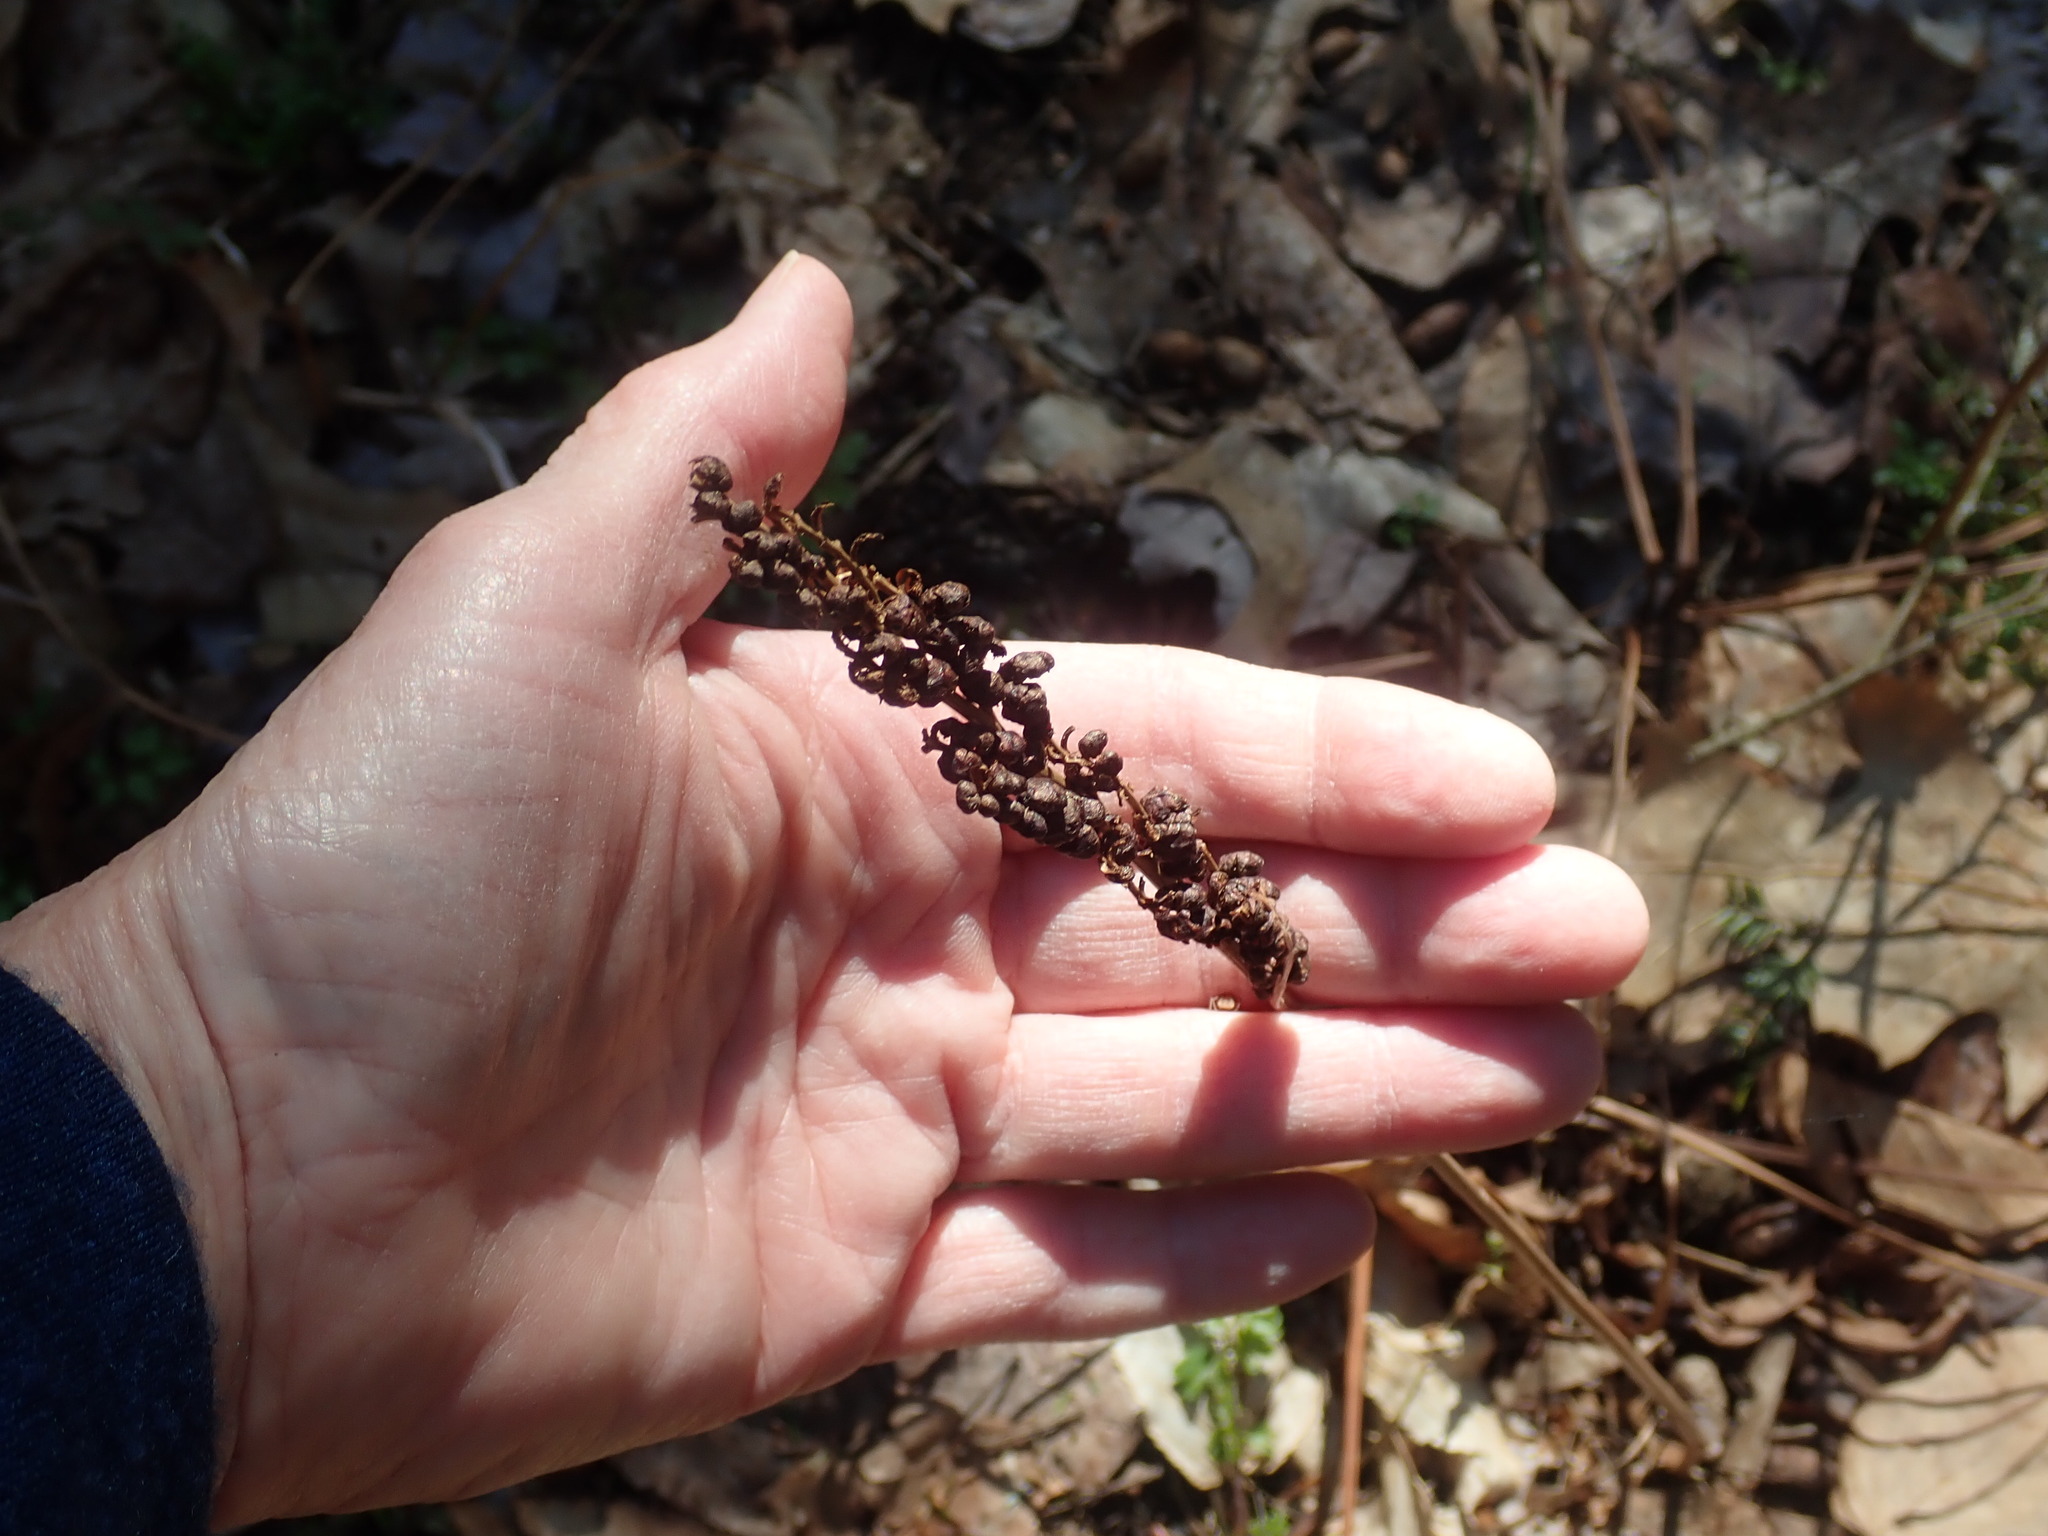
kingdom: Plantae
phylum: Tracheophyta
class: Polypodiopsida
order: Polypodiales
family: Onocleaceae
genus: Onoclea
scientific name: Onoclea sensibilis
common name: Sensitive fern
